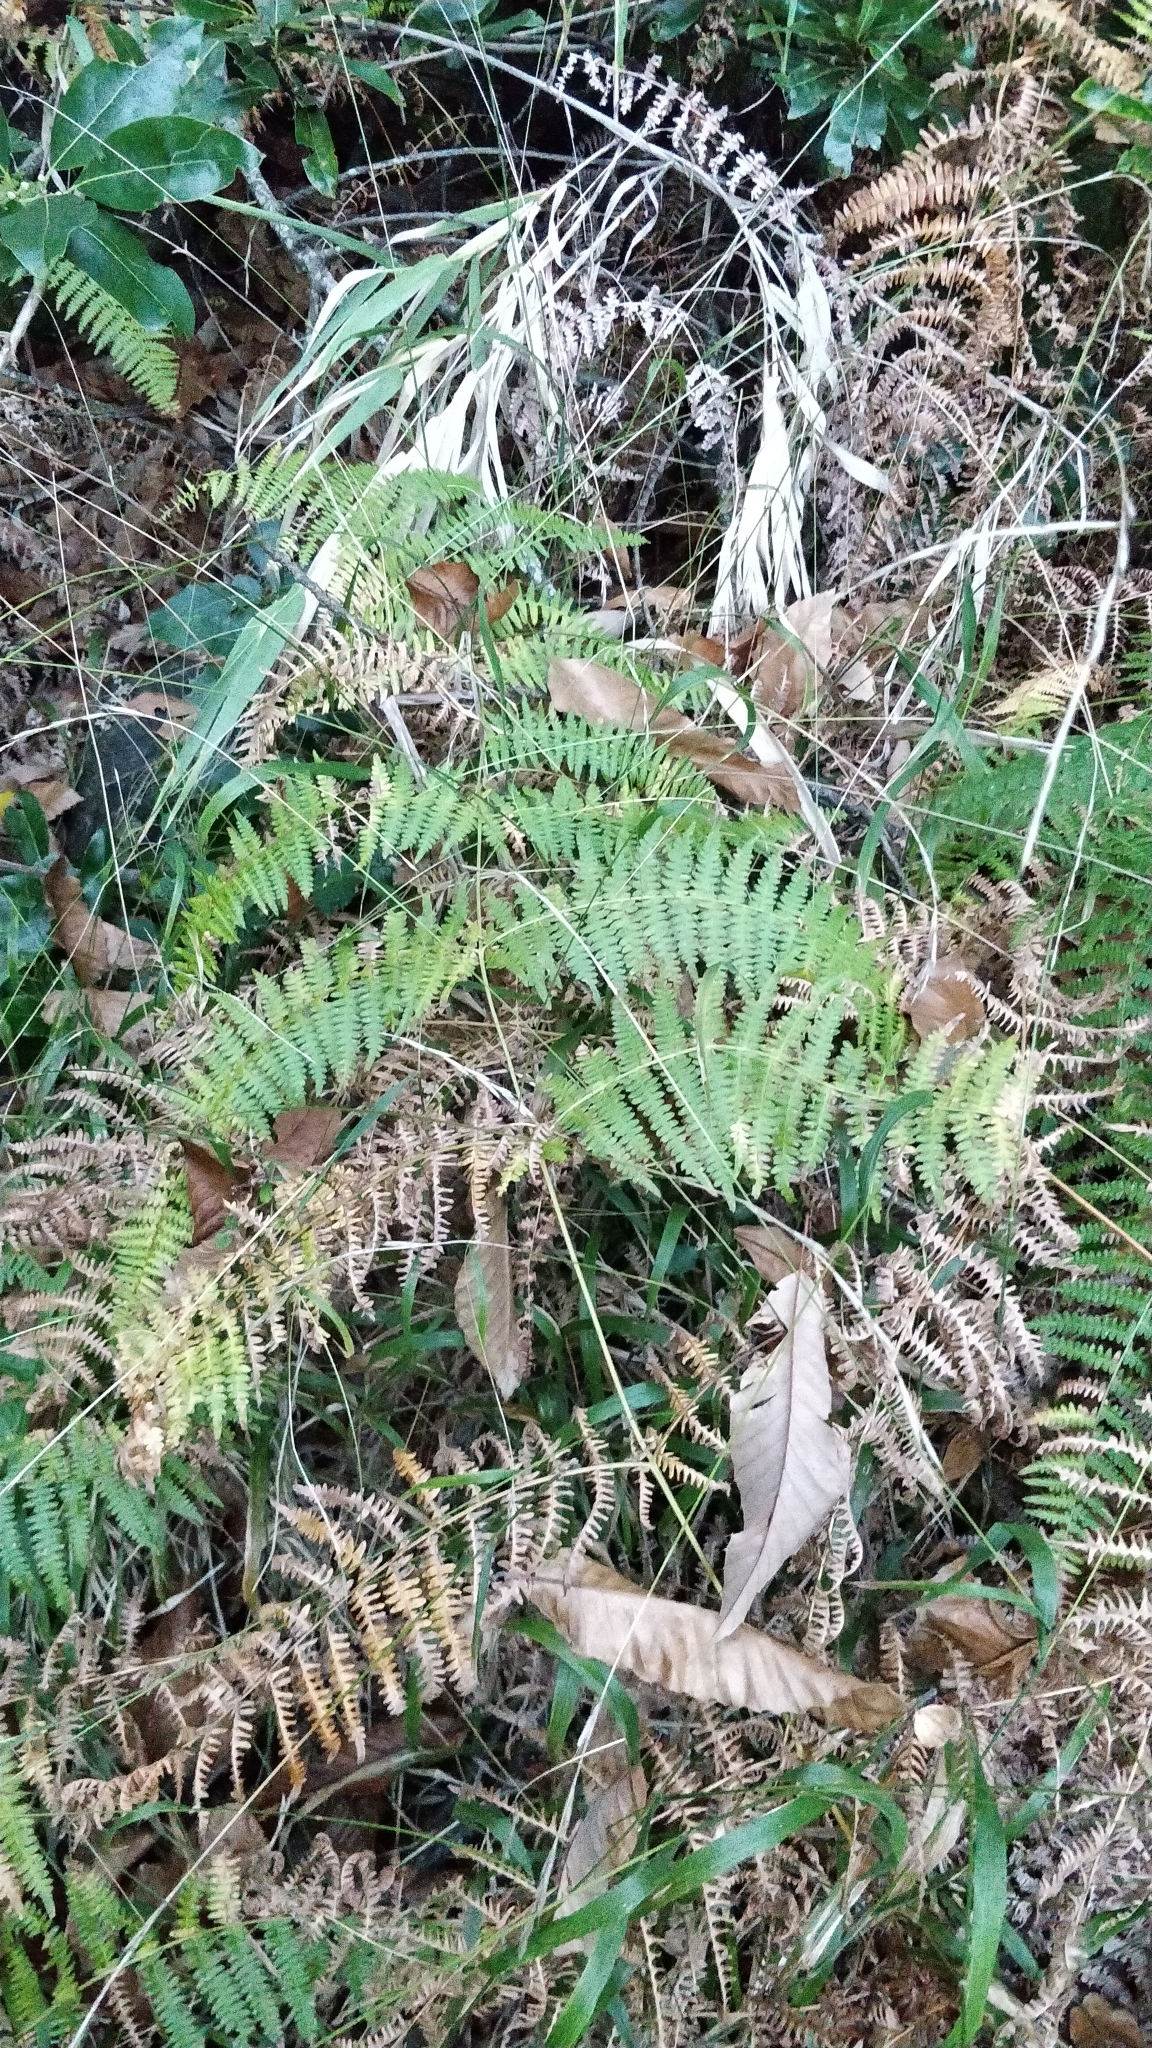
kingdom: Plantae
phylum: Tracheophyta
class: Polypodiopsida
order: Polypodiales
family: Dennstaedtiaceae
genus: Pteridium
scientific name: Pteridium aquilinum
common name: Bracken
